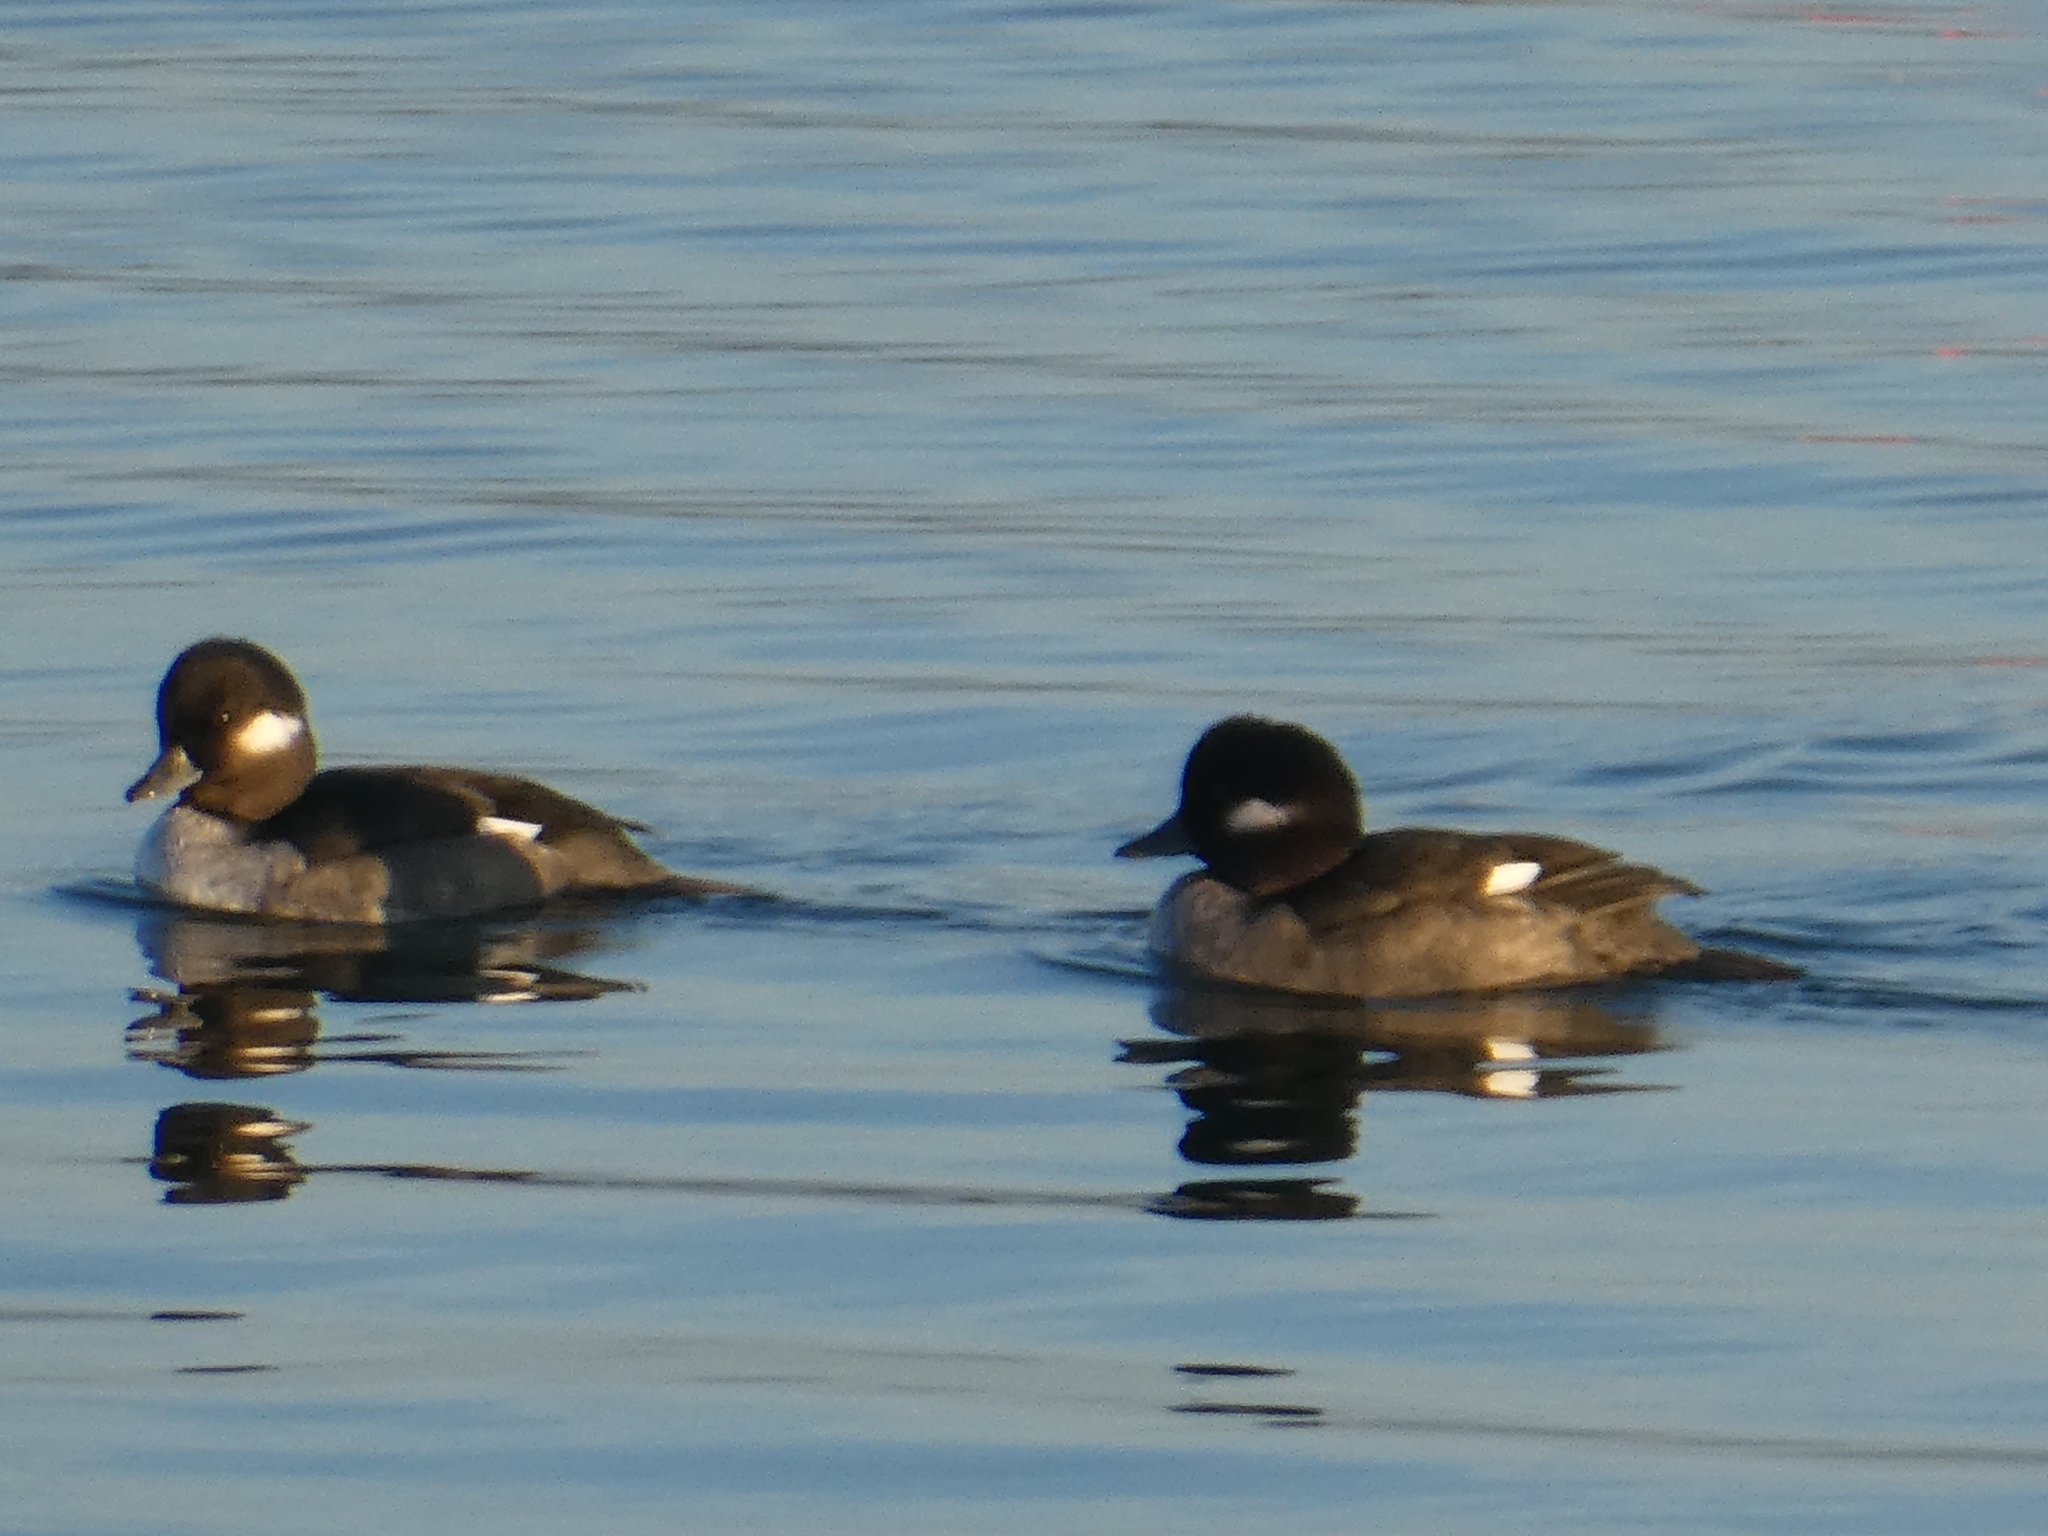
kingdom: Animalia
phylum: Chordata
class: Aves
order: Anseriformes
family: Anatidae
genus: Bucephala
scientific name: Bucephala albeola
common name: Bufflehead
